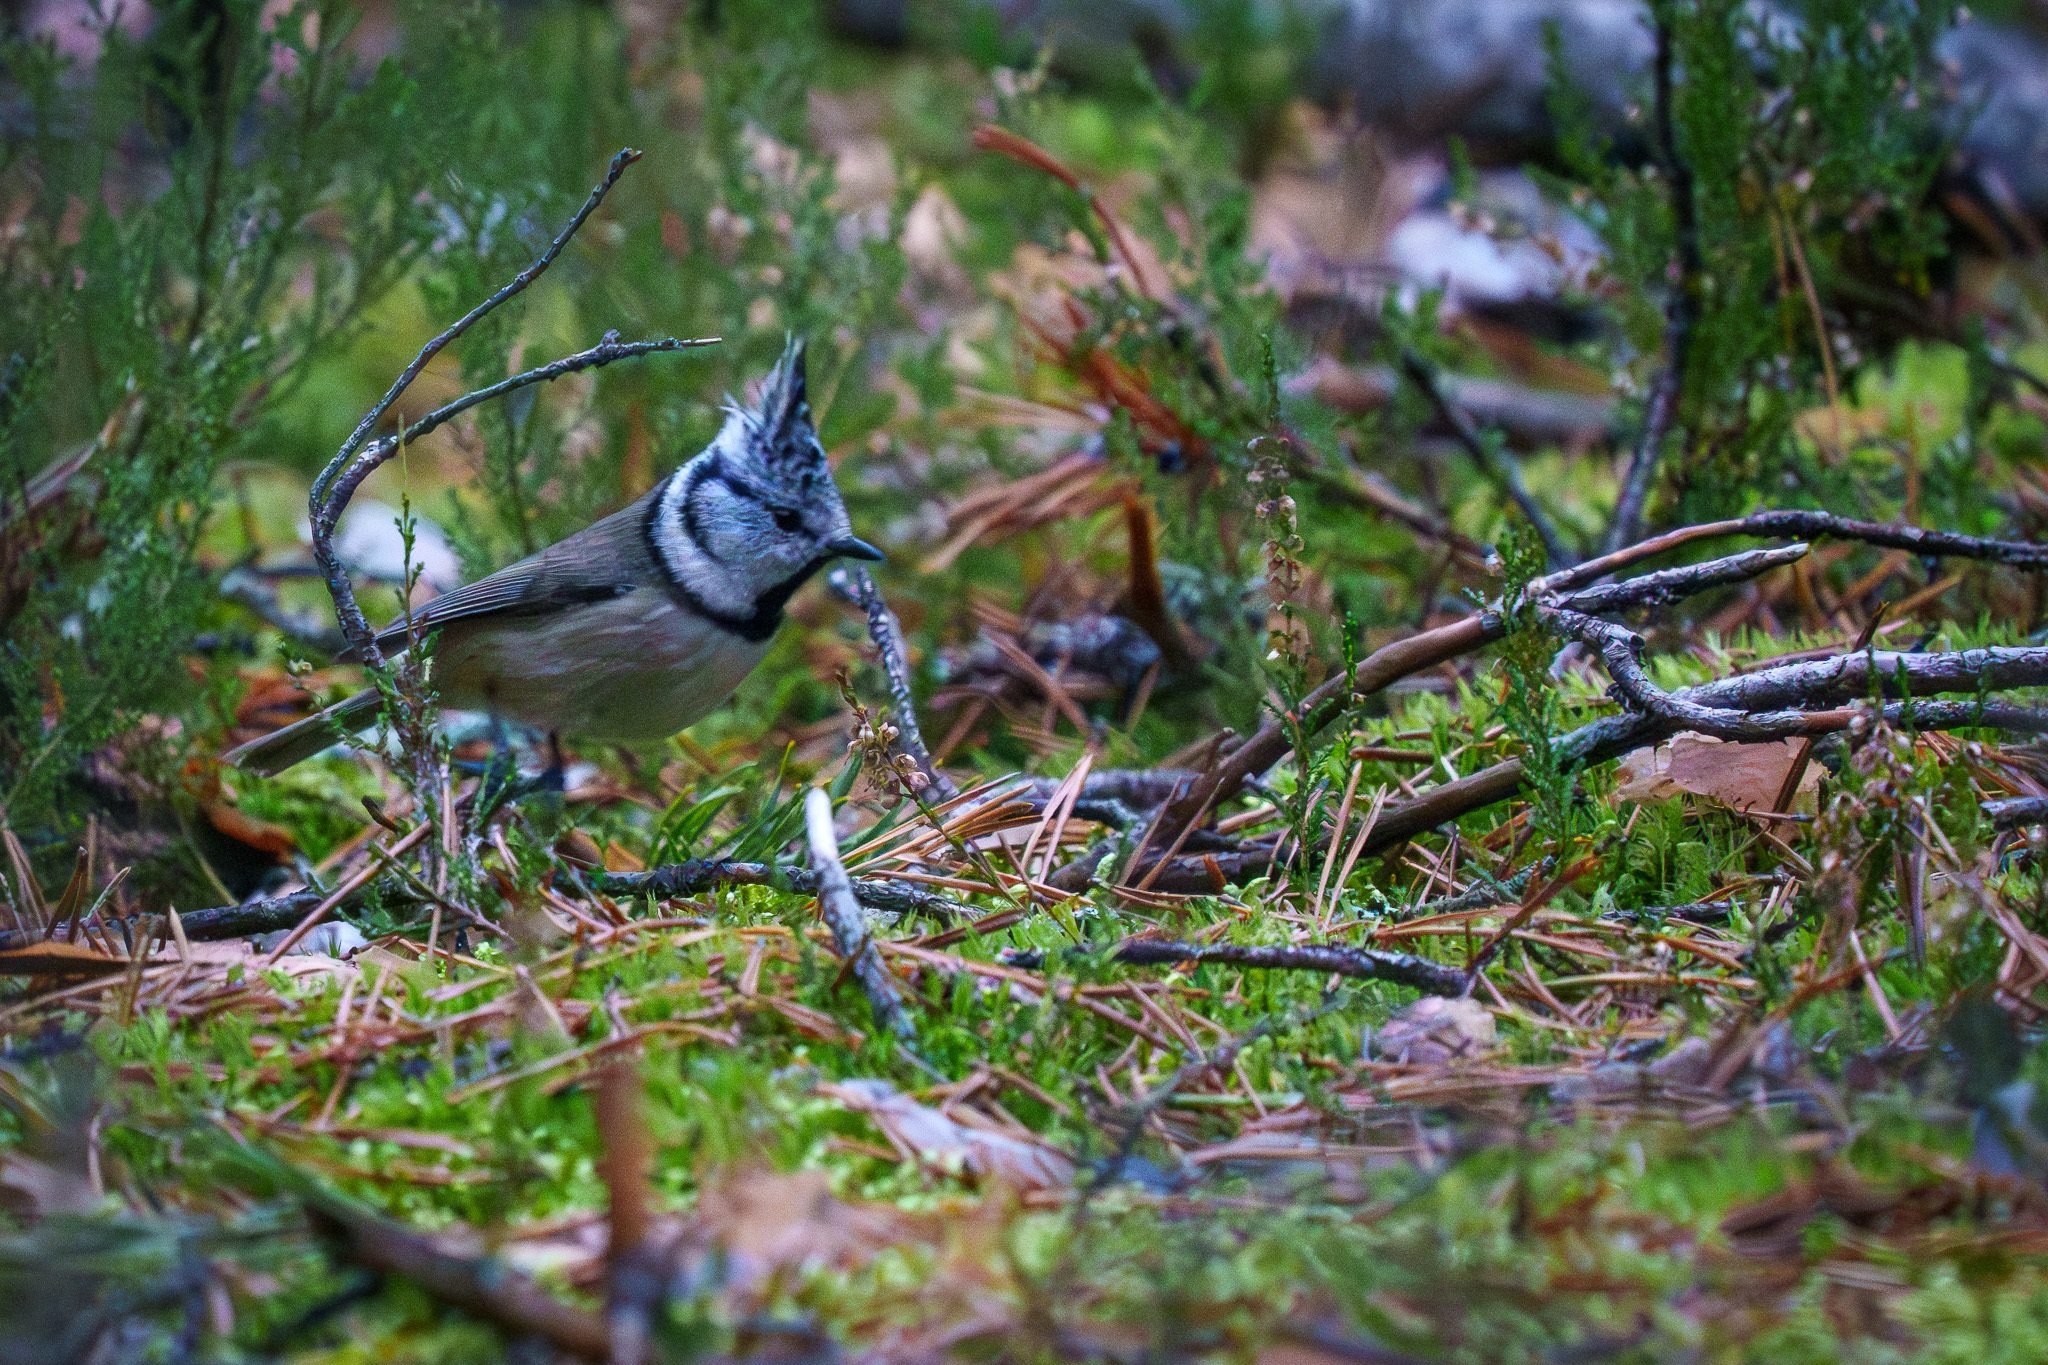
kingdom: Animalia
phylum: Chordata
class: Aves
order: Passeriformes
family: Paridae
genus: Lophophanes
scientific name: Lophophanes cristatus
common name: European crested tit
